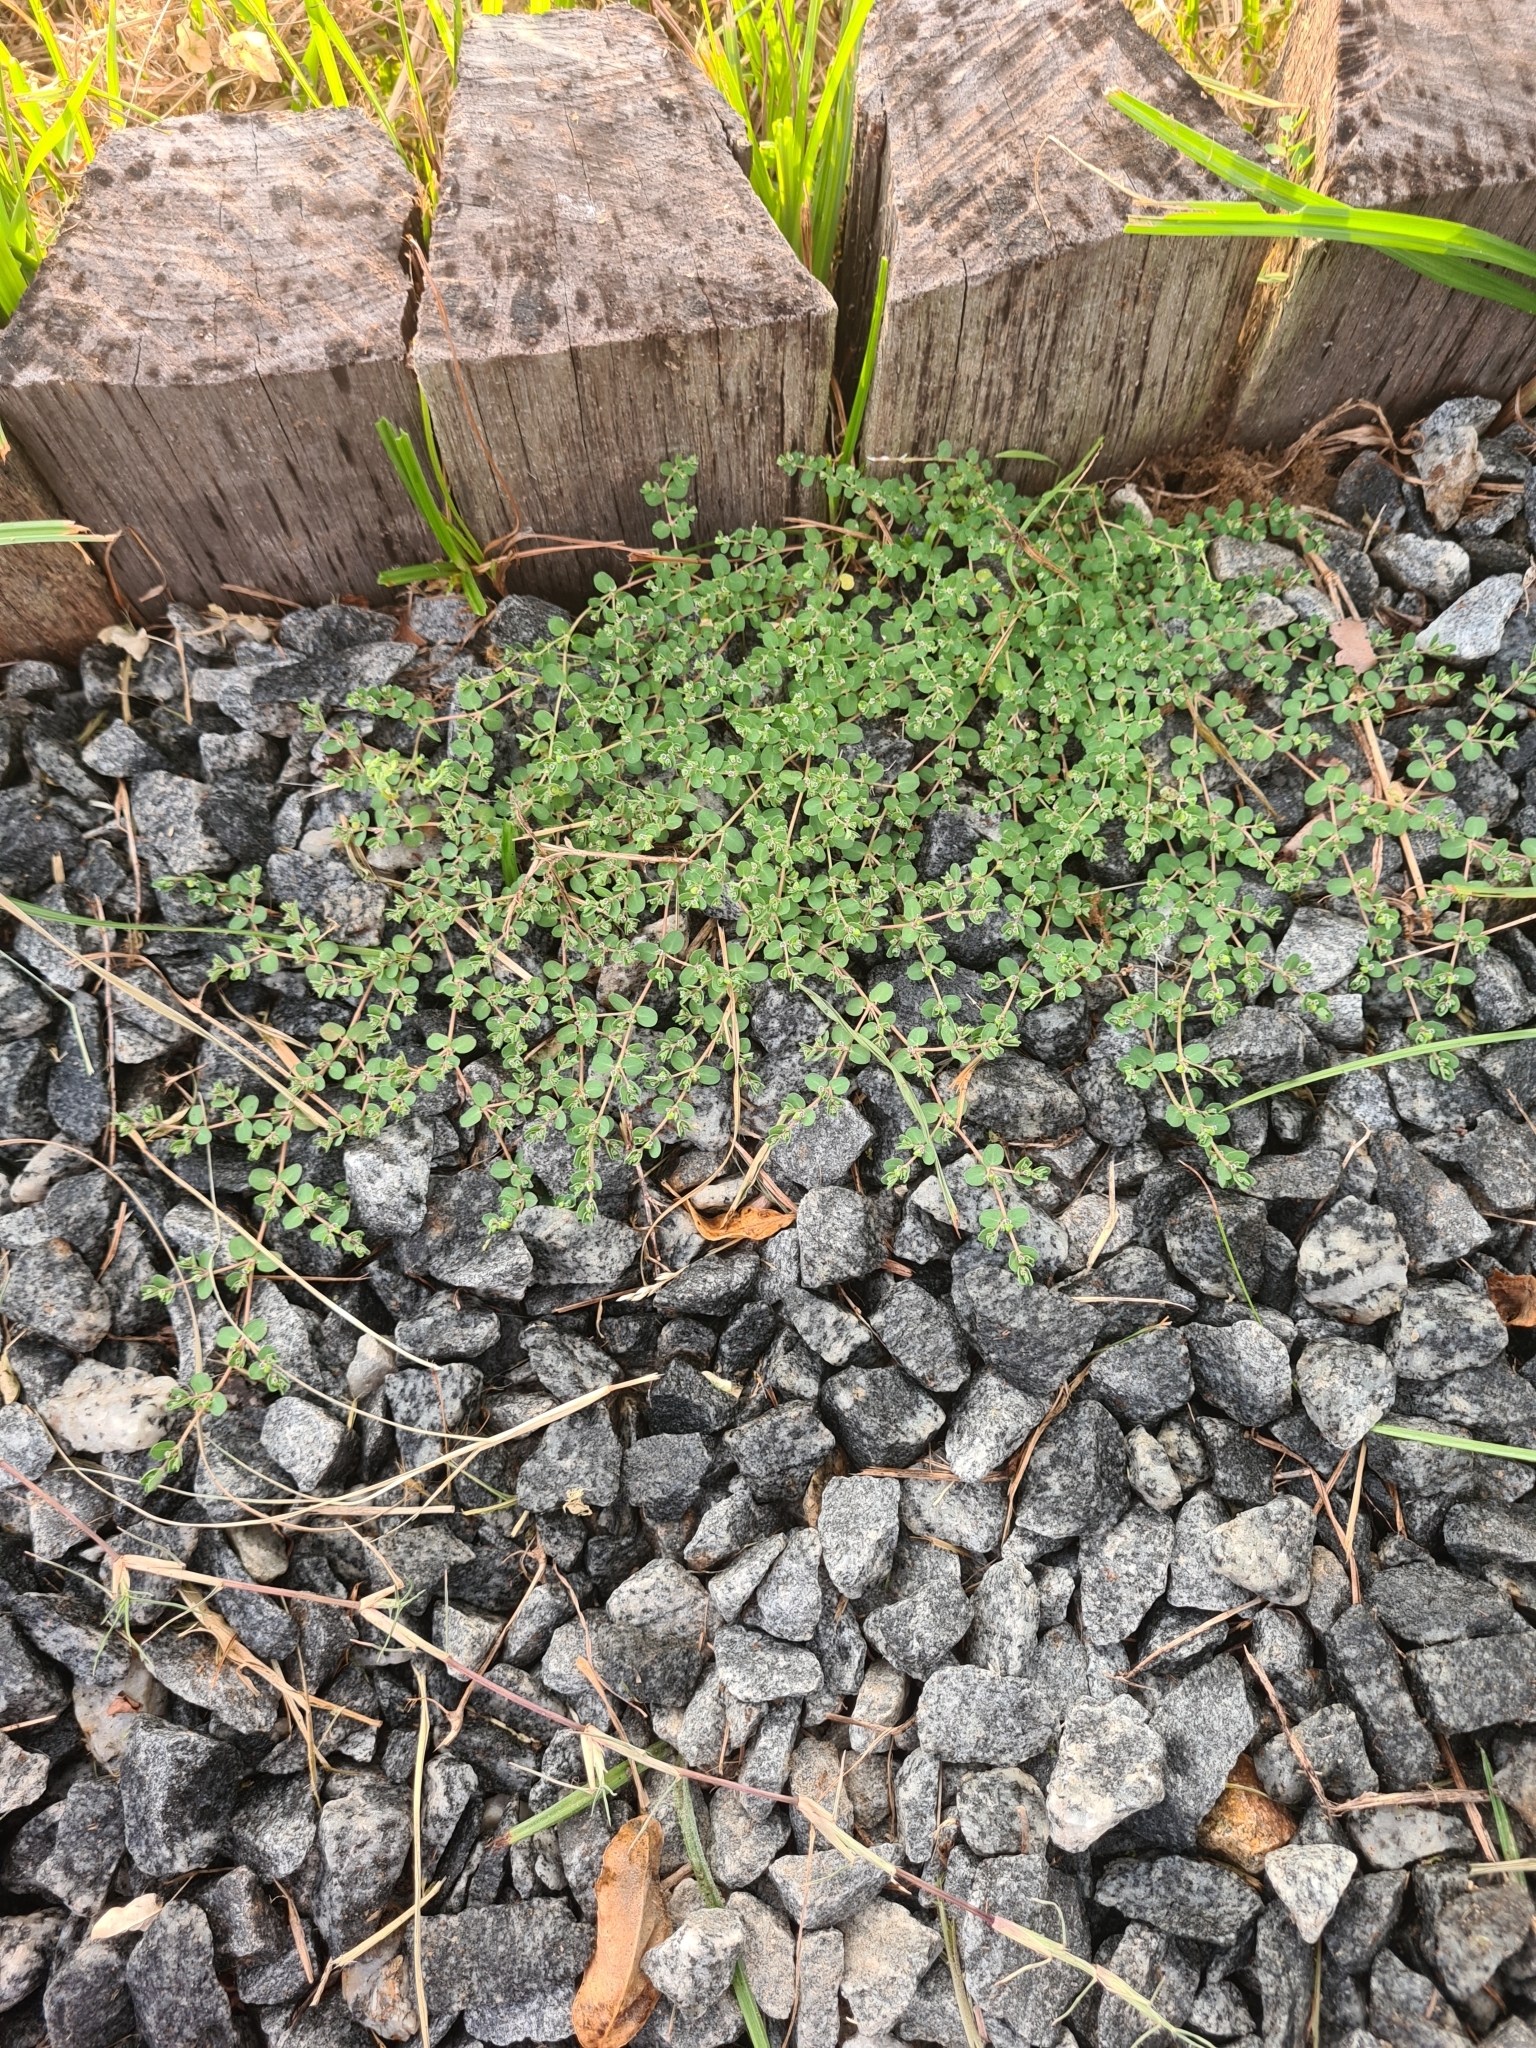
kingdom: Plantae
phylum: Tracheophyta
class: Magnoliopsida
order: Malpighiales
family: Euphorbiaceae
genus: Euphorbia
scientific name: Euphorbia serpens
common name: Matted sandmat
